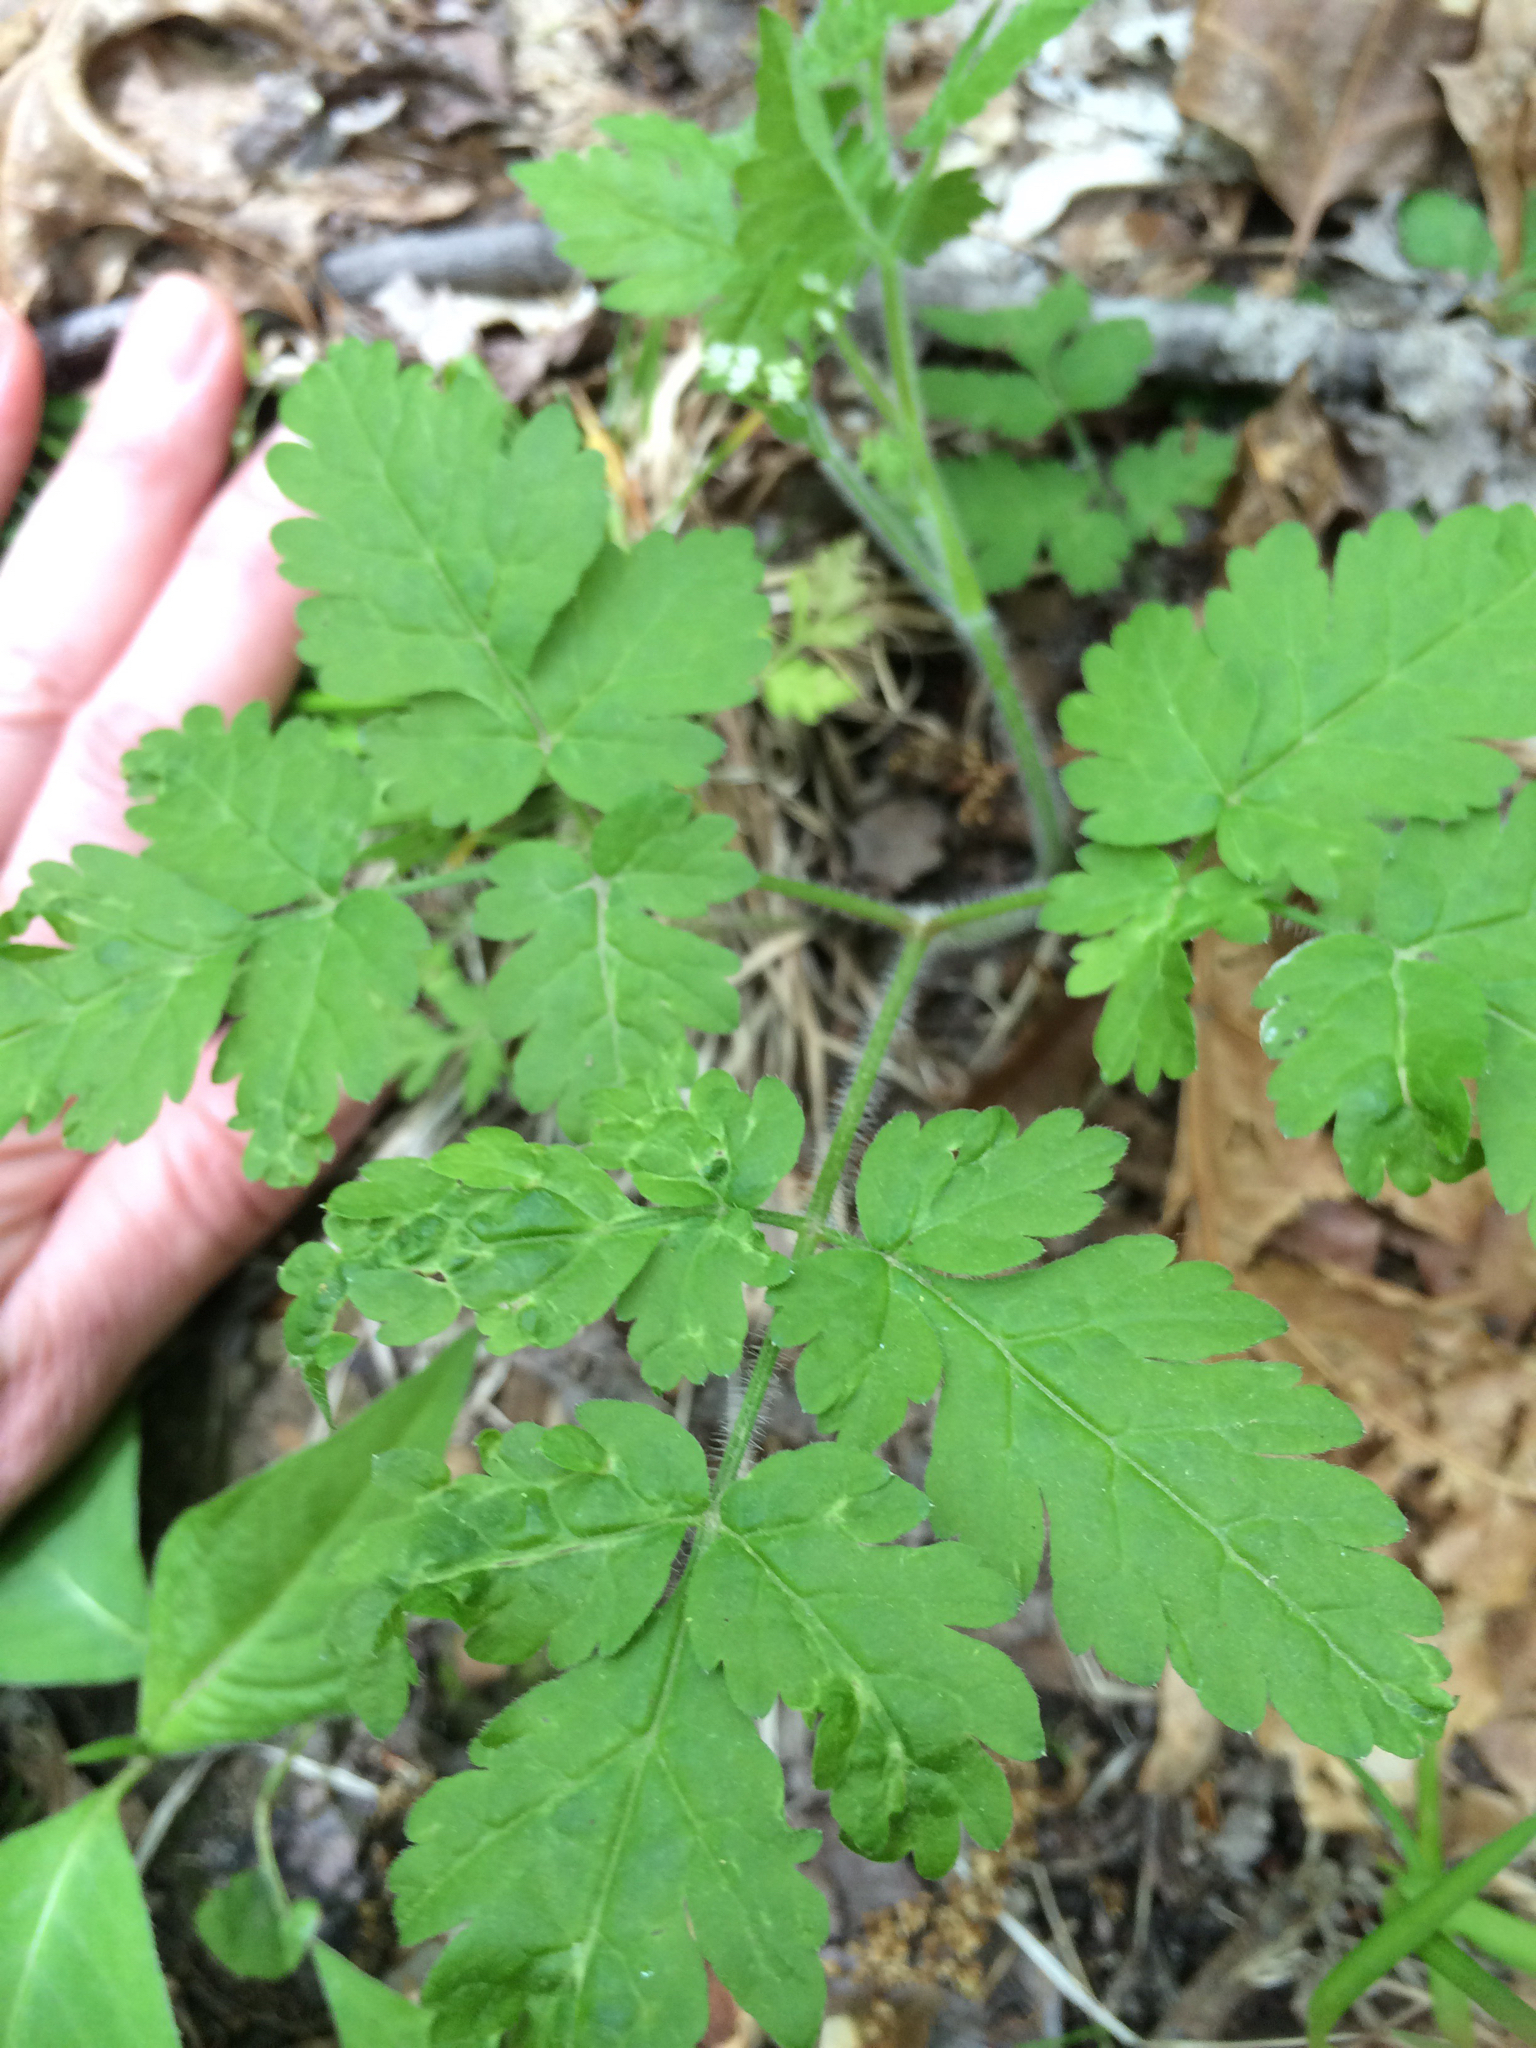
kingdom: Plantae
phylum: Tracheophyta
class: Magnoliopsida
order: Apiales
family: Apiaceae
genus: Osmorhiza
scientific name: Osmorhiza claytonii
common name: Hairy sweet cicely
